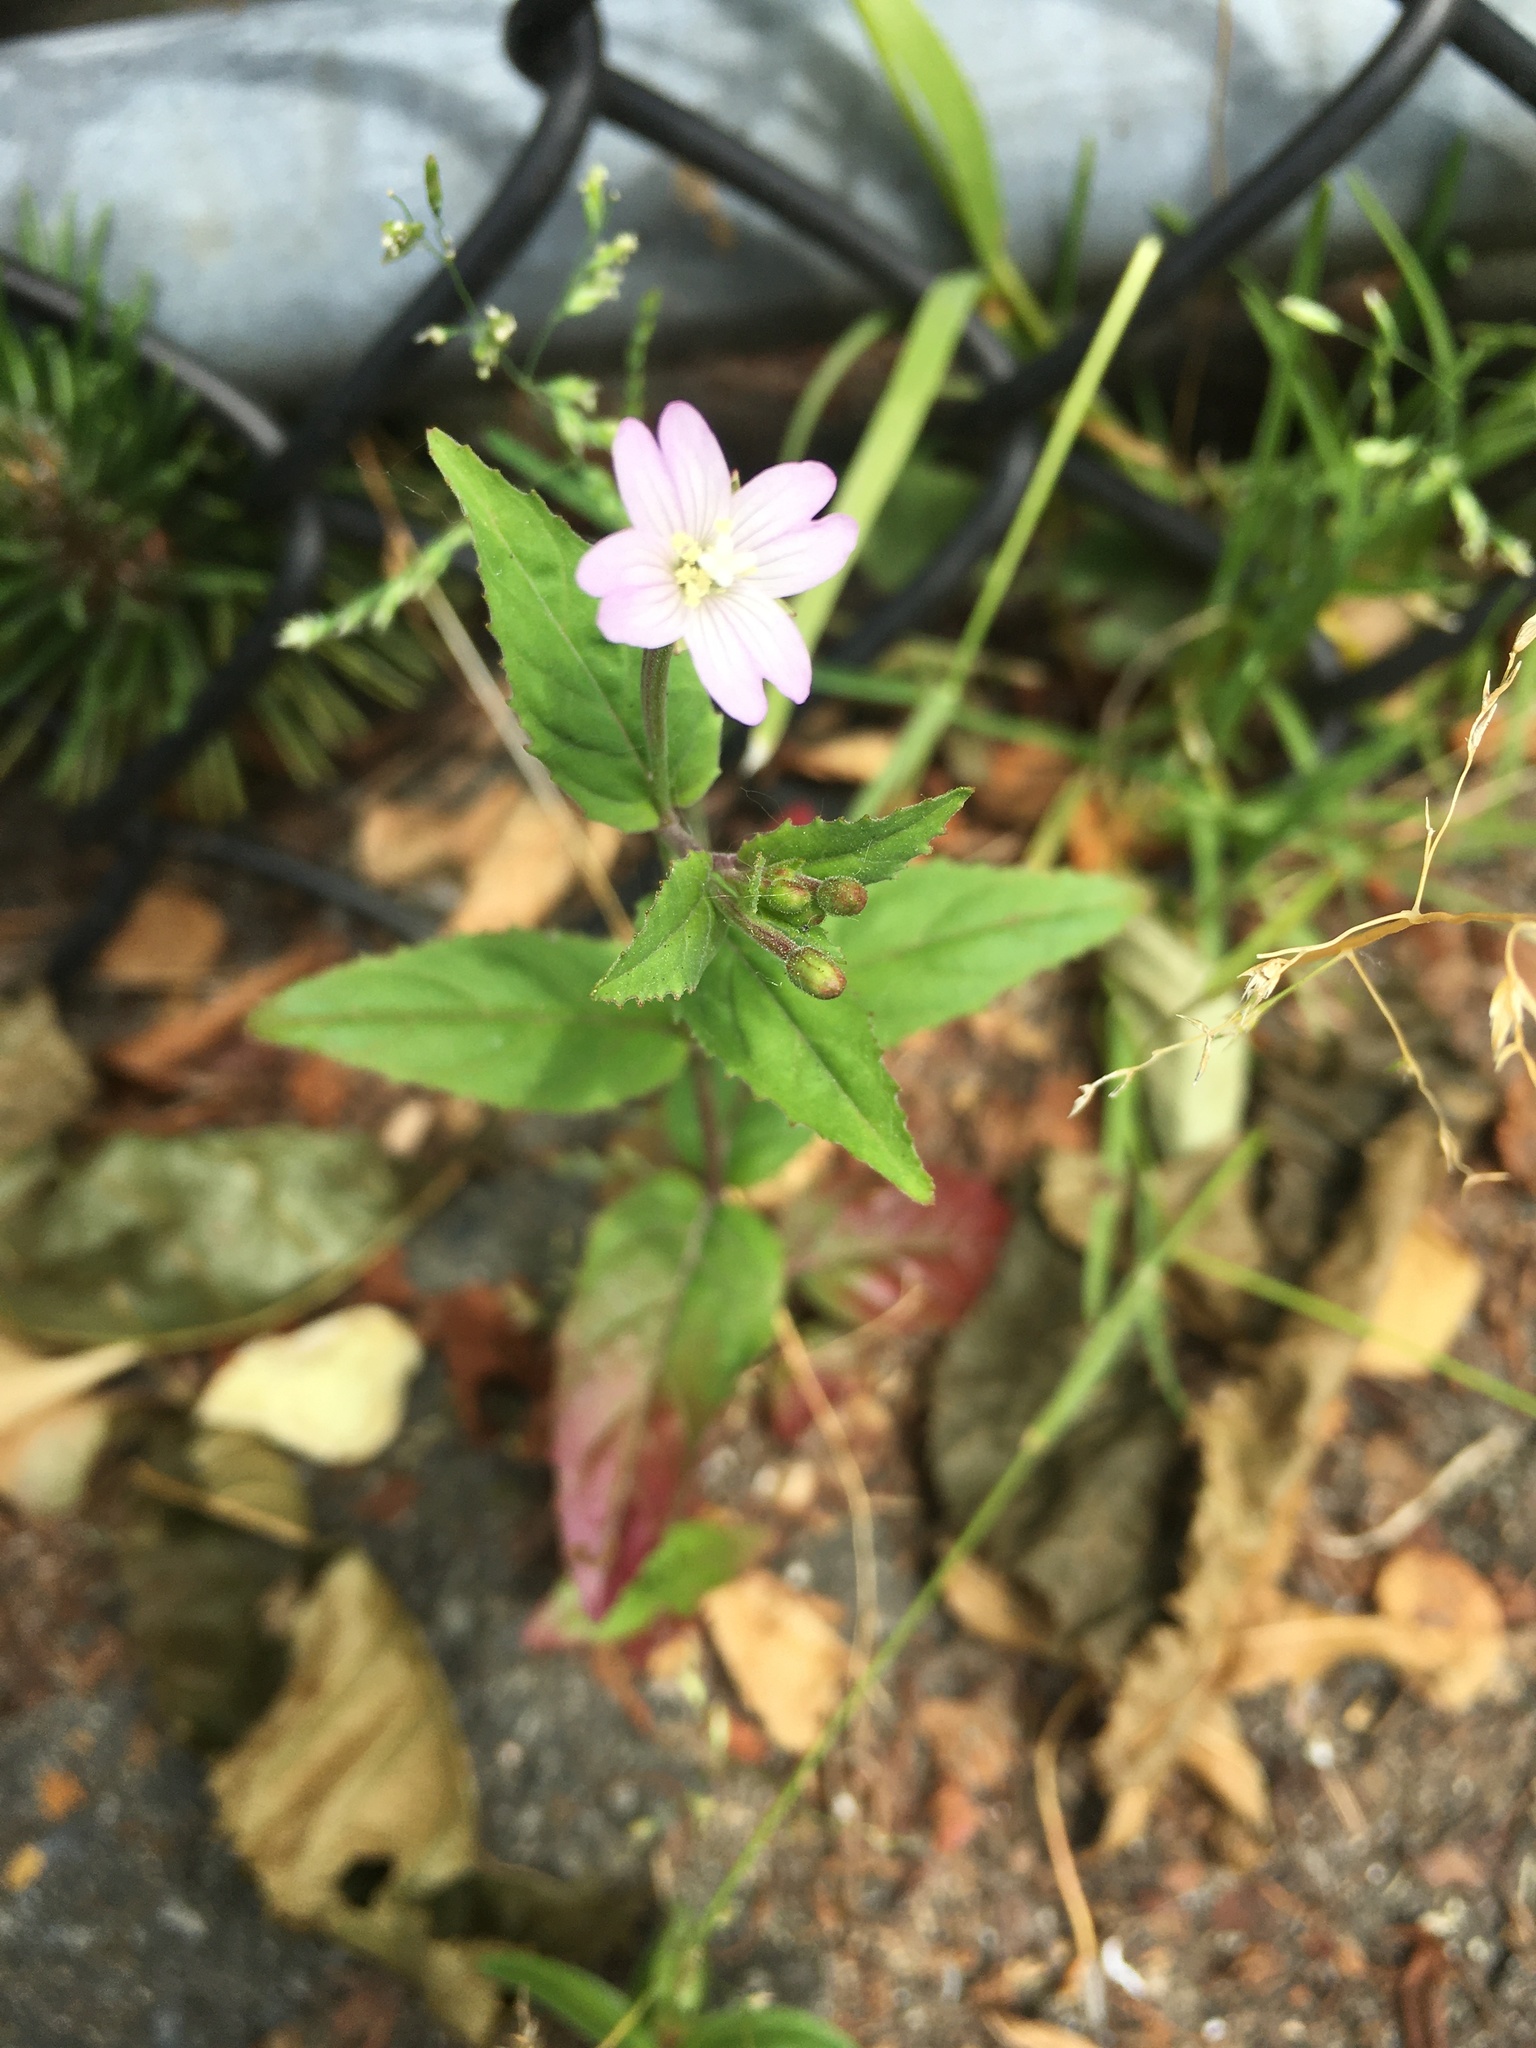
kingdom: Plantae
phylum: Tracheophyta
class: Magnoliopsida
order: Myrtales
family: Onagraceae
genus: Epilobium
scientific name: Epilobium ciliatum
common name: American willowherb
